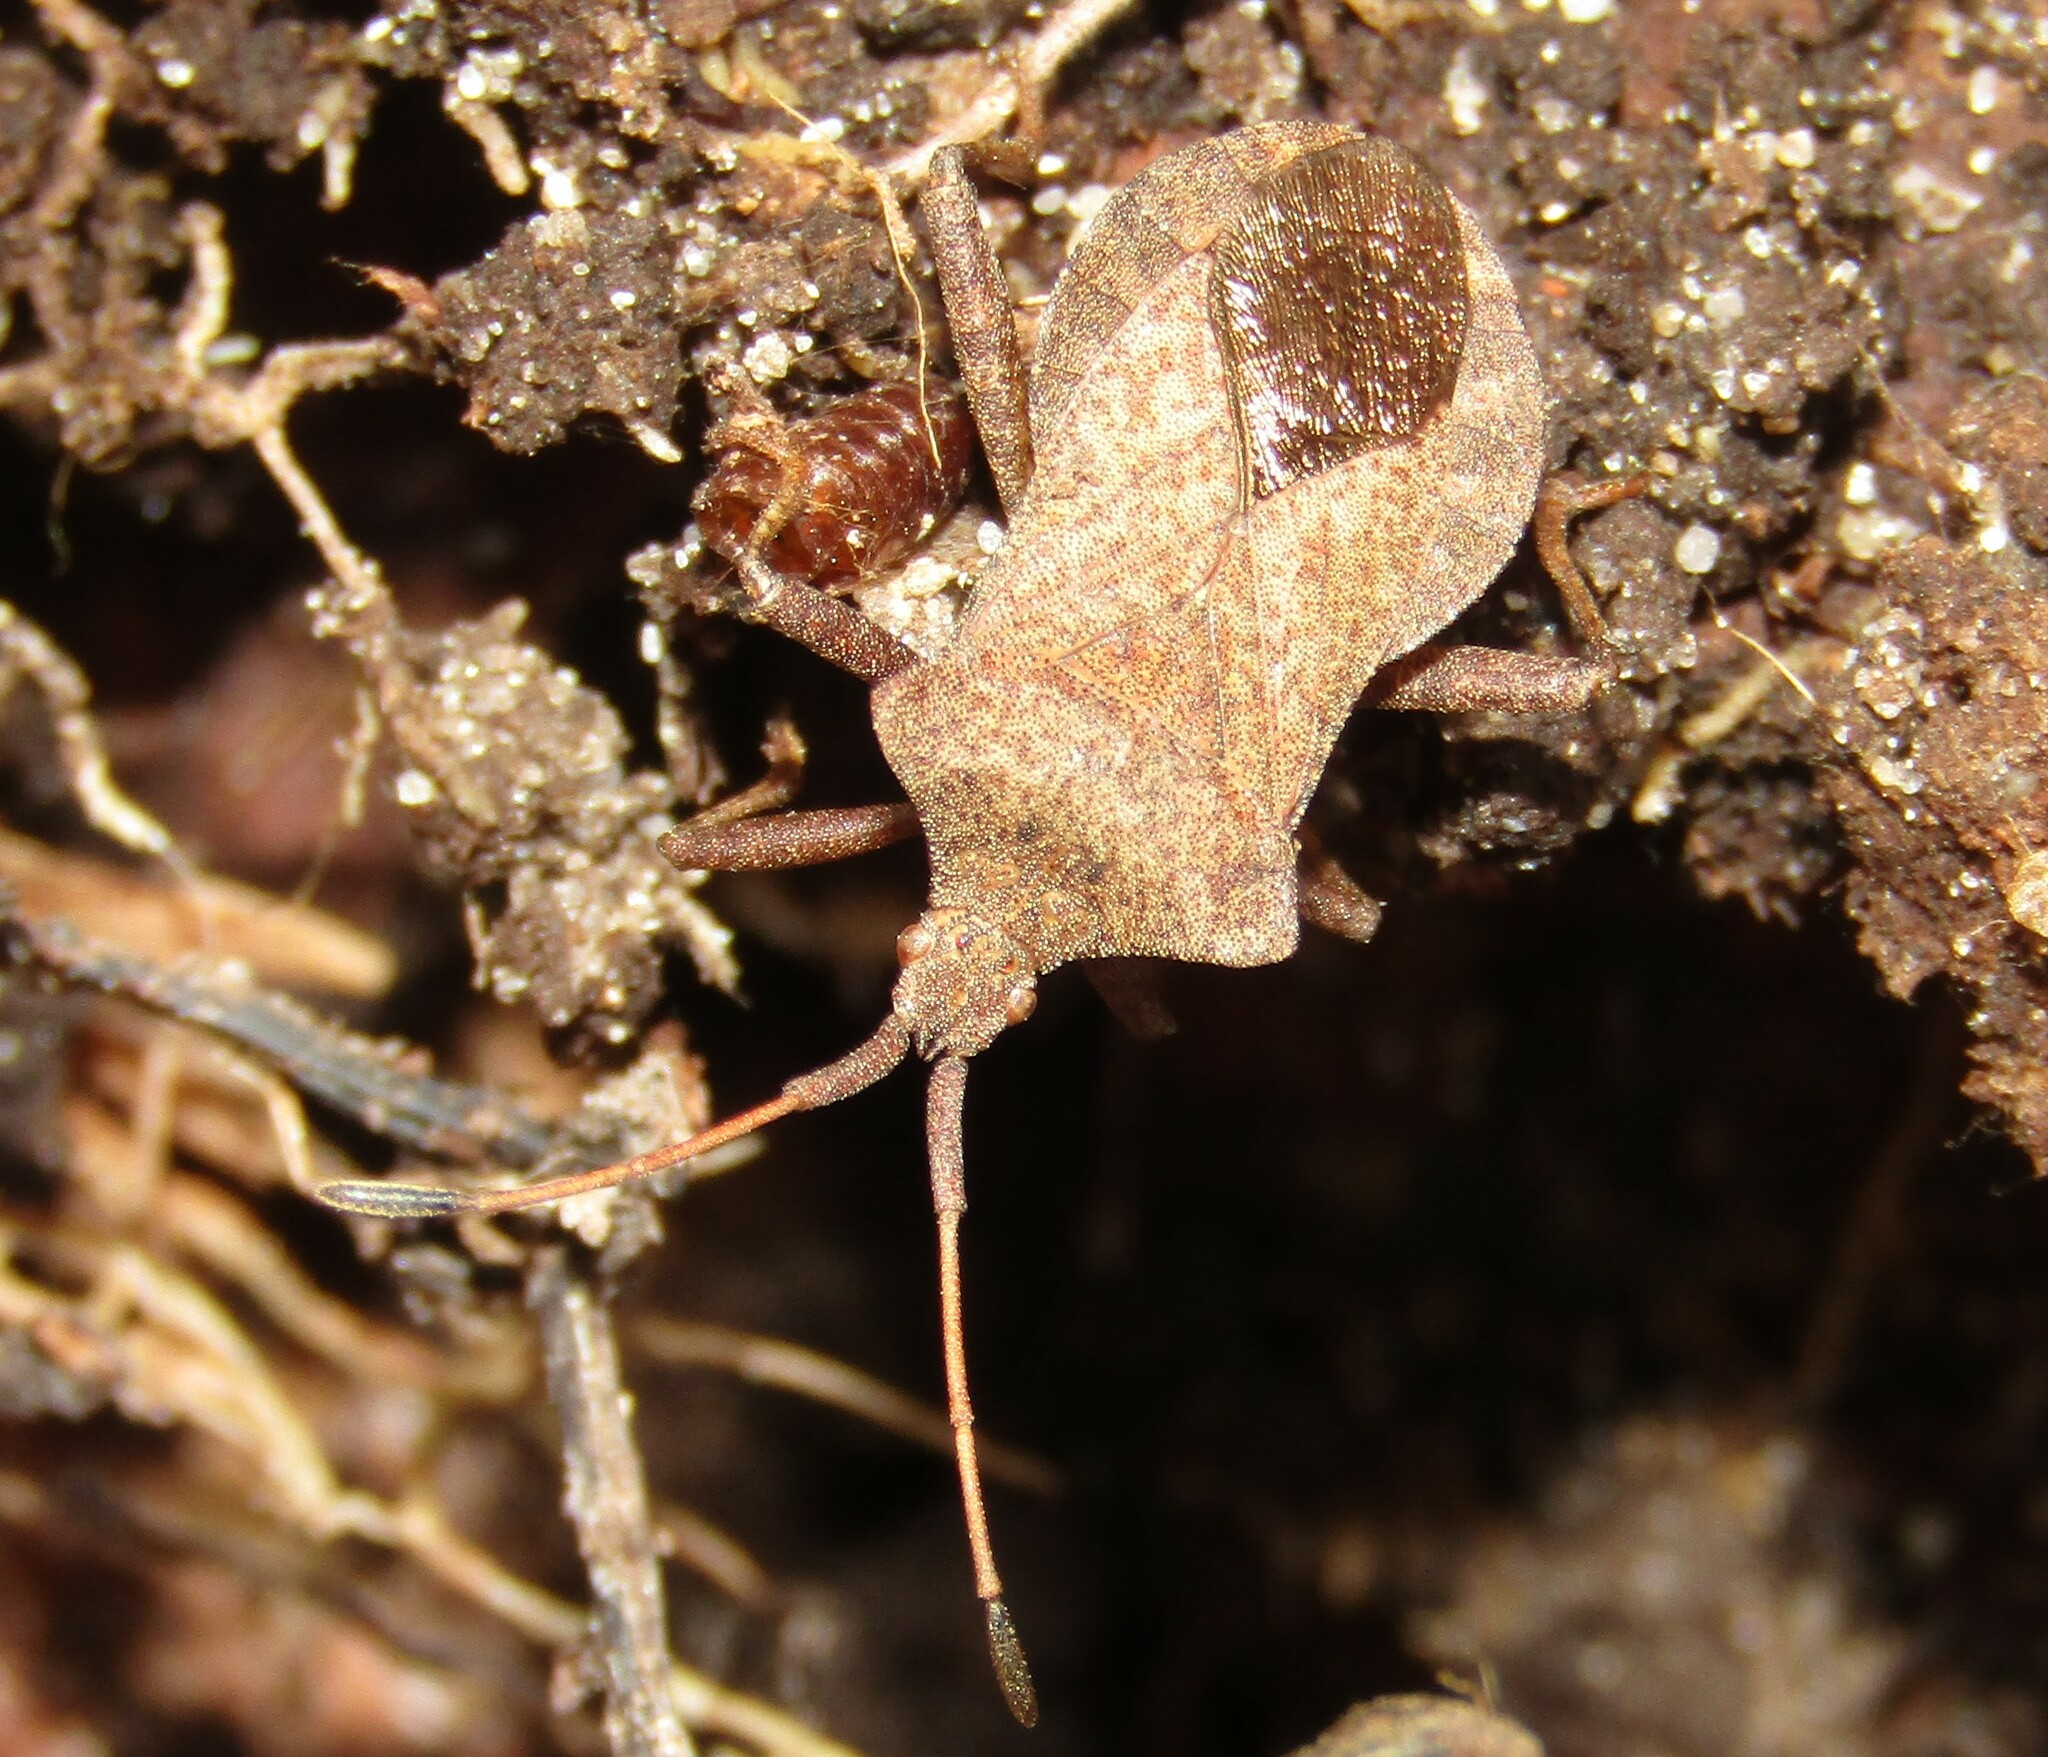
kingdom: Animalia
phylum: Arthropoda
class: Insecta
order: Hemiptera
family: Coreidae
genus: Coreus
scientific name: Coreus marginatus
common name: Dock bug
